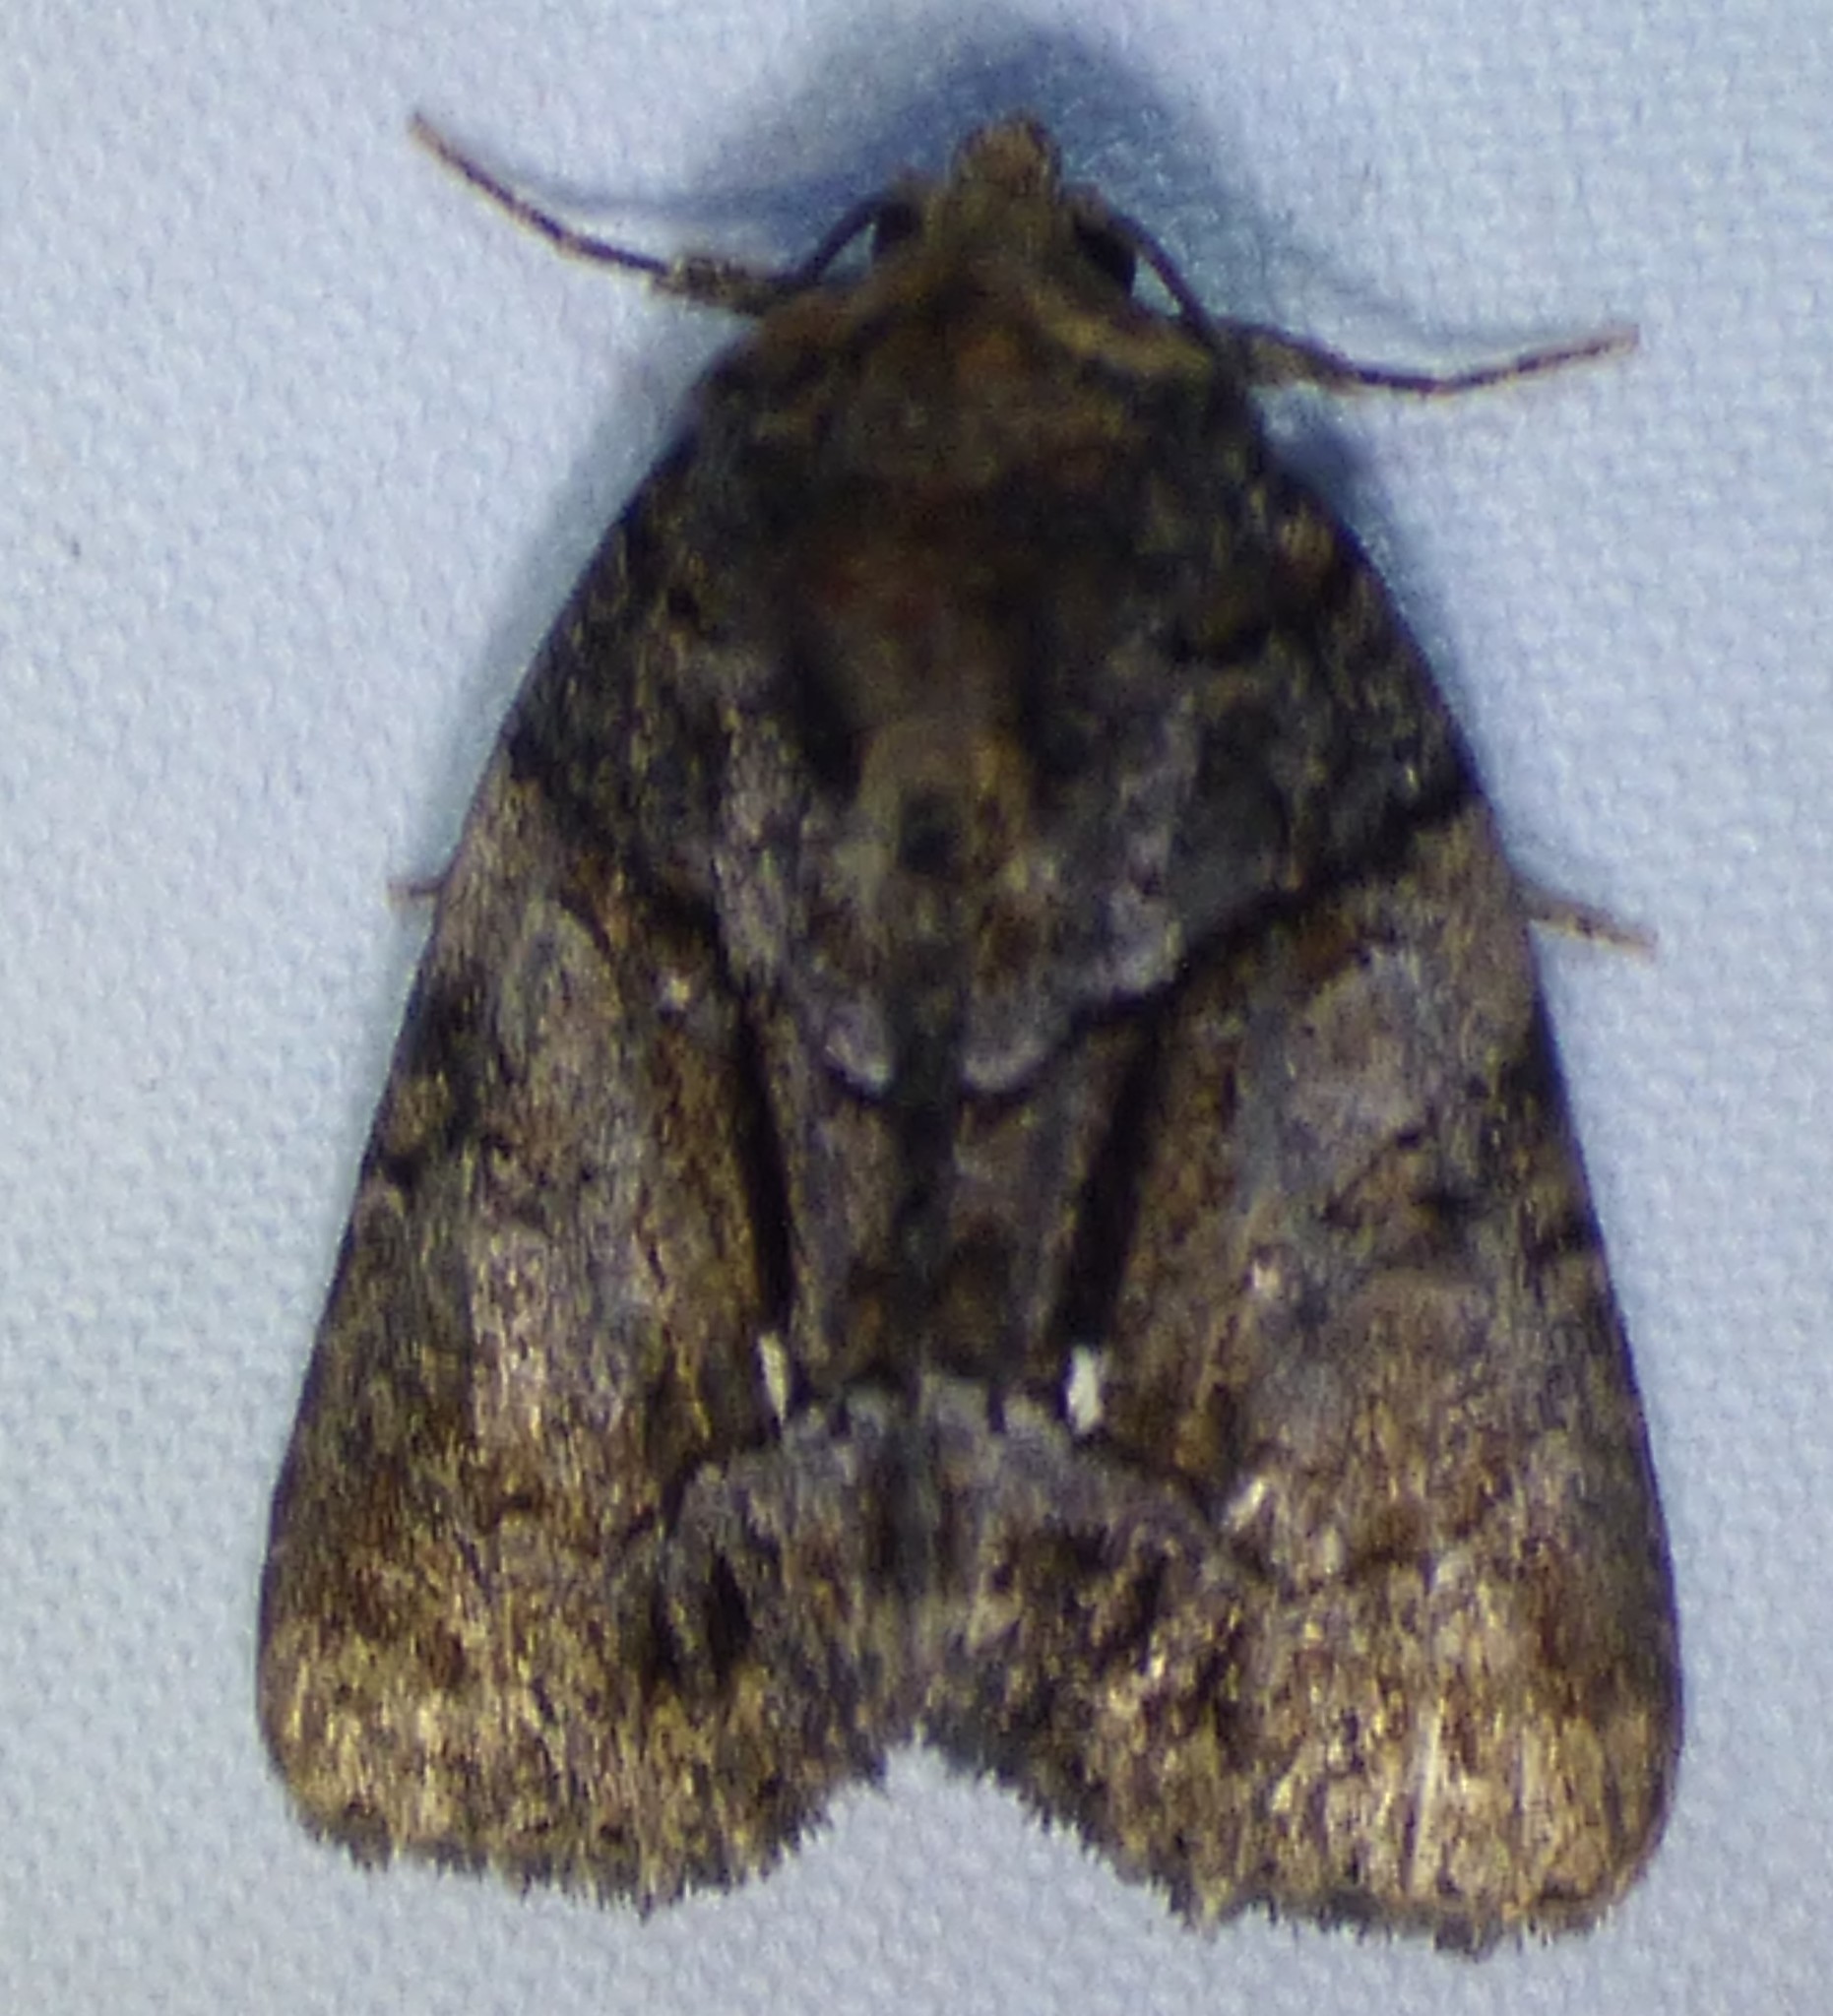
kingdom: Animalia
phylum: Arthropoda
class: Insecta
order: Lepidoptera
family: Noctuidae
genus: Chytonix
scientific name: Chytonix palliatricula
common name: Cloaked marvel
